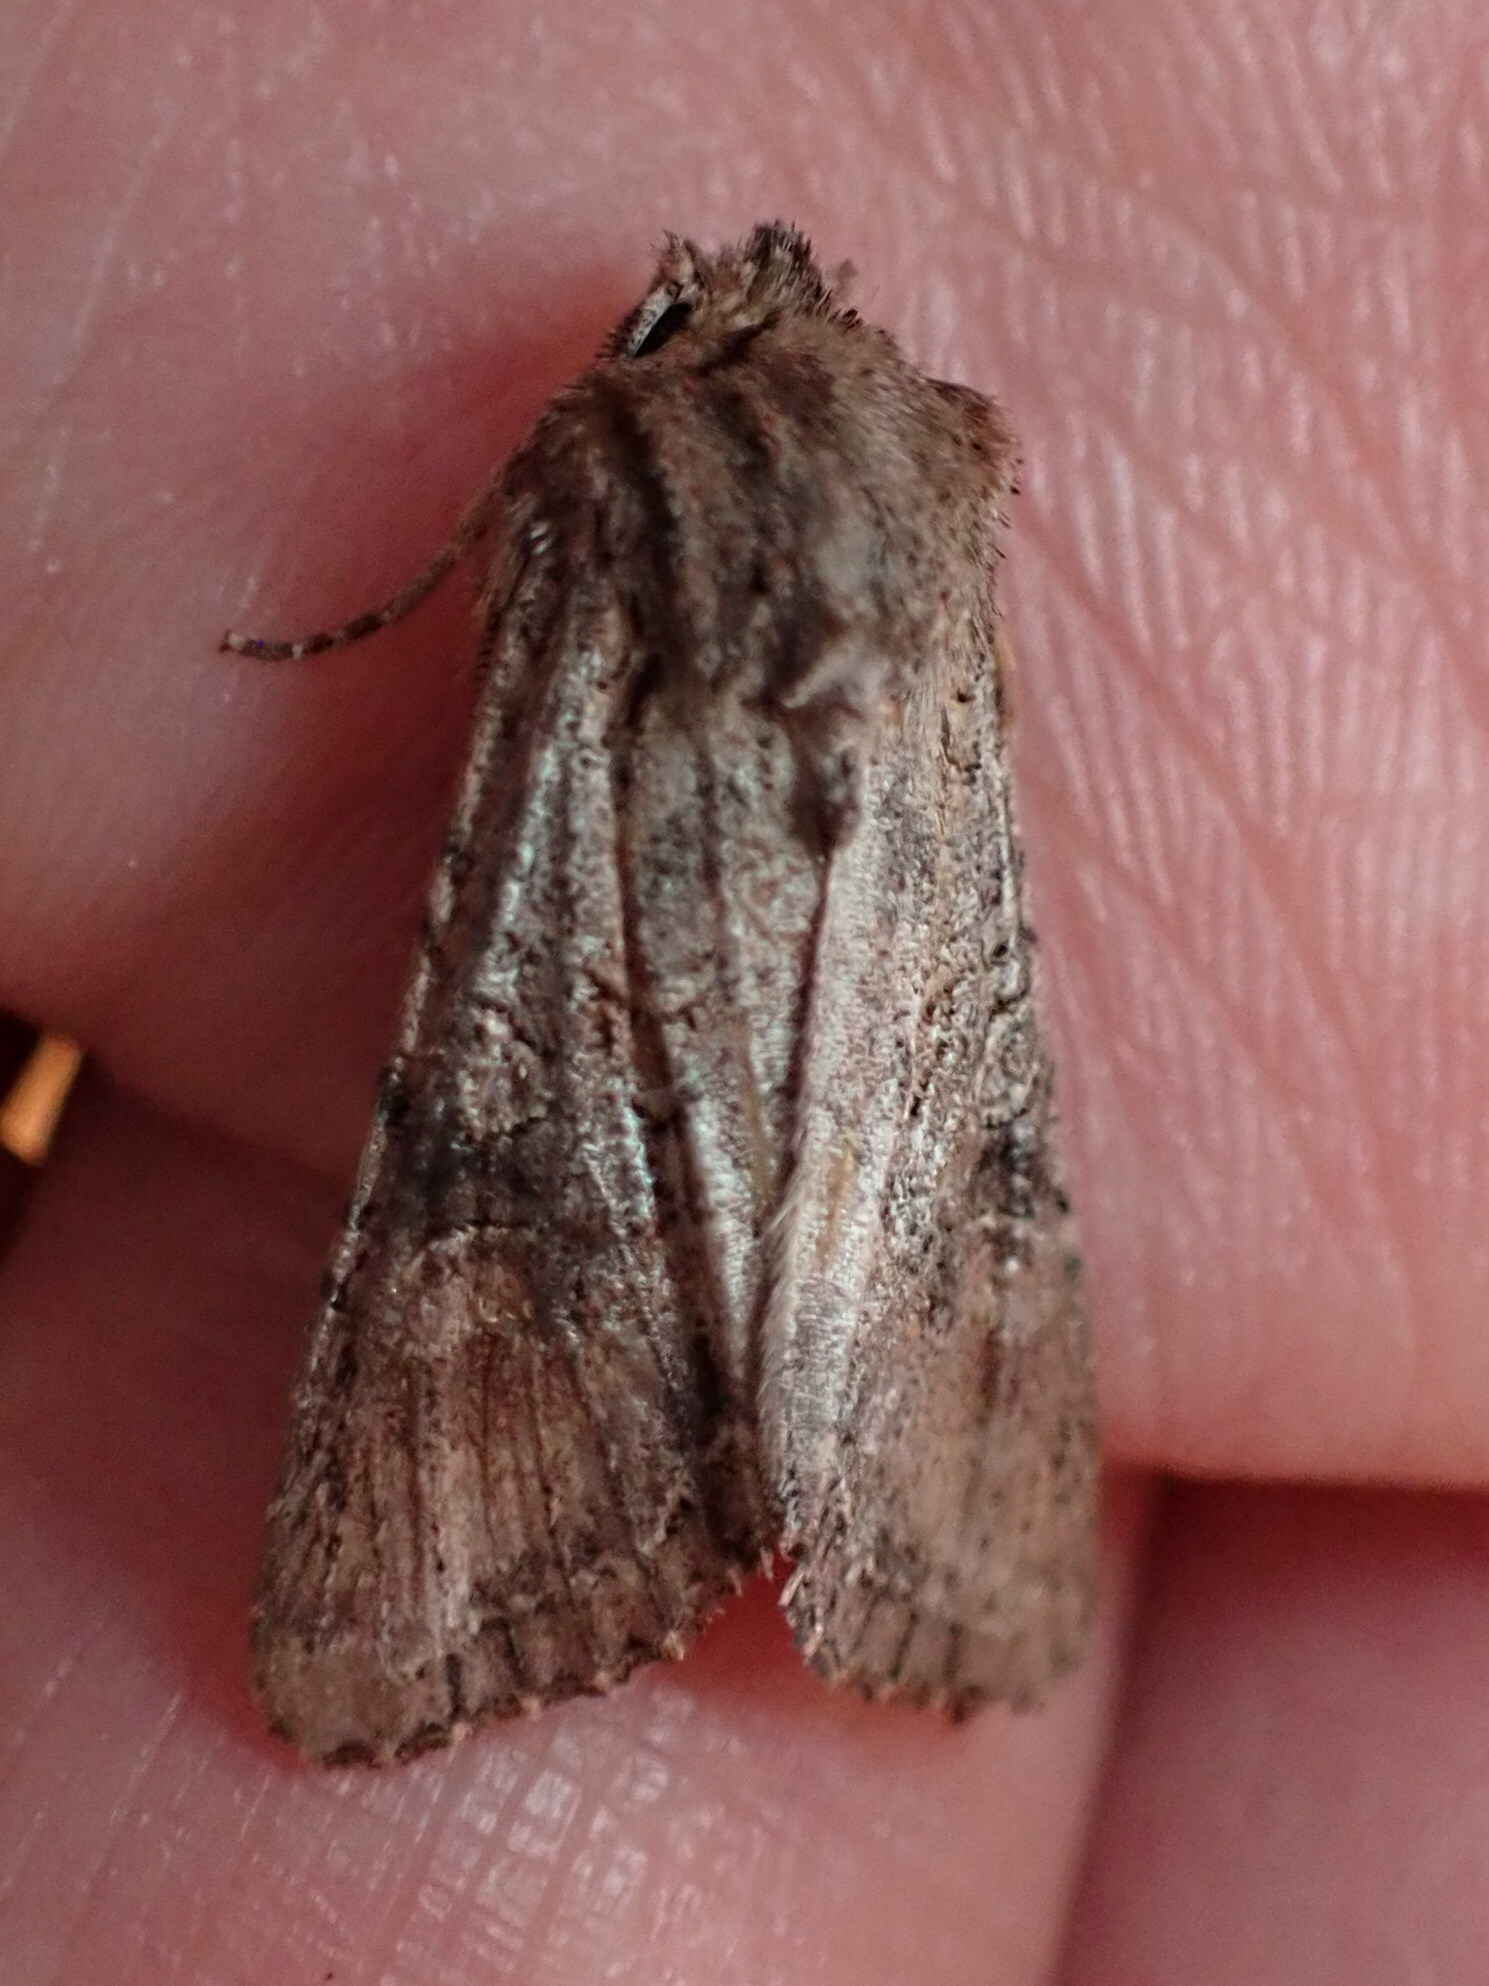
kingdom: Animalia
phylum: Arthropoda
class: Insecta
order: Lepidoptera
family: Noctuidae
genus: Ichneutica
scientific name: Ichneutica mutans
